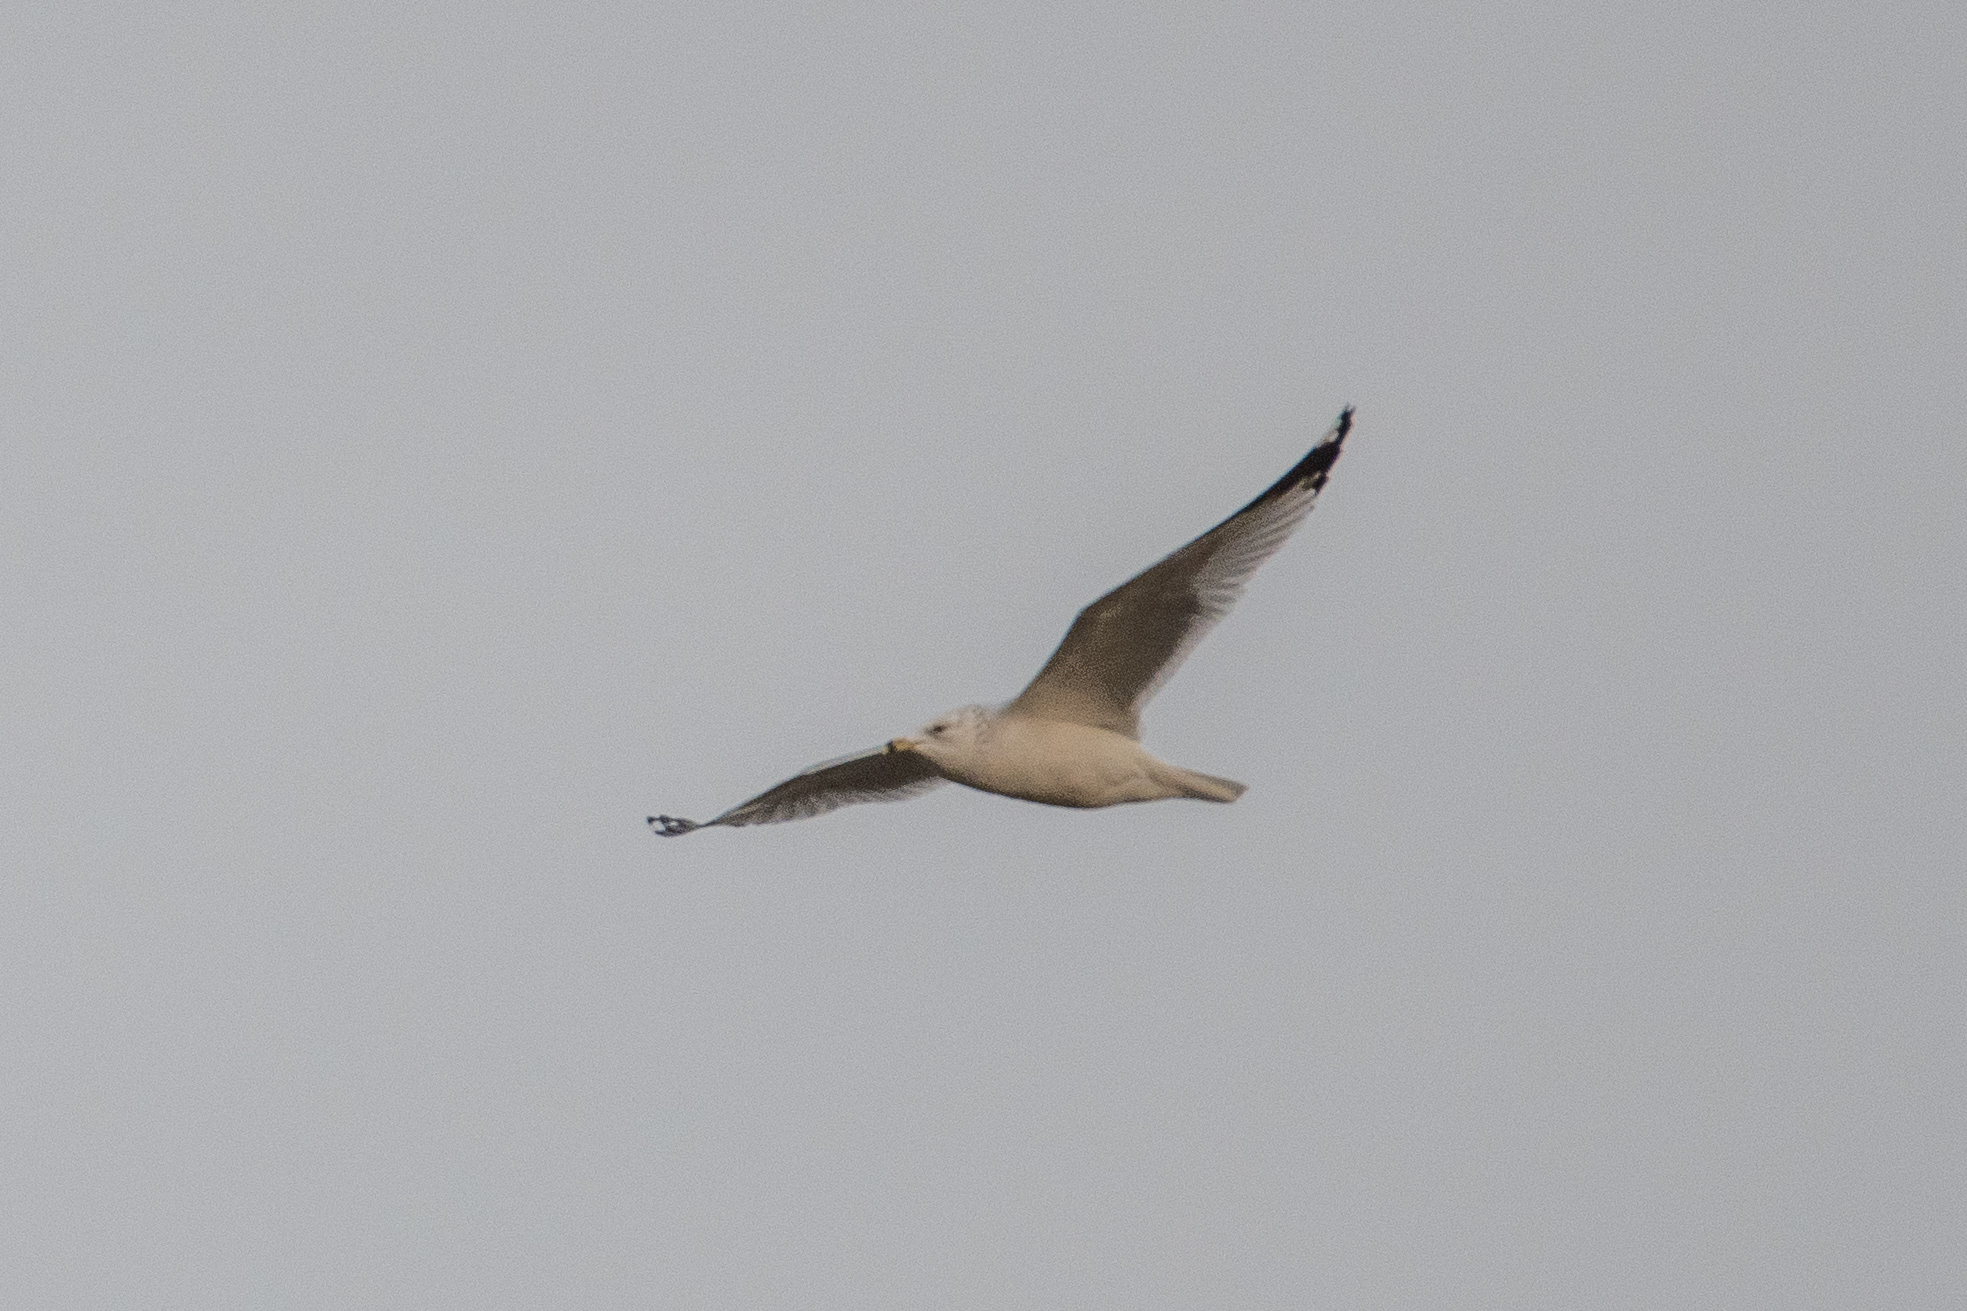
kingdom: Animalia
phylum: Chordata
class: Aves
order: Charadriiformes
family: Laridae
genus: Larus
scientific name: Larus delawarensis
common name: Ring-billed gull
